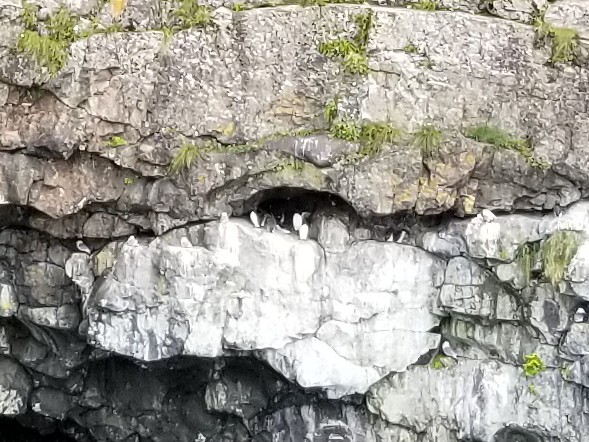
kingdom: Animalia
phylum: Chordata
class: Aves
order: Charadriiformes
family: Alcidae
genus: Uria
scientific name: Uria aalge
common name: Common murre
